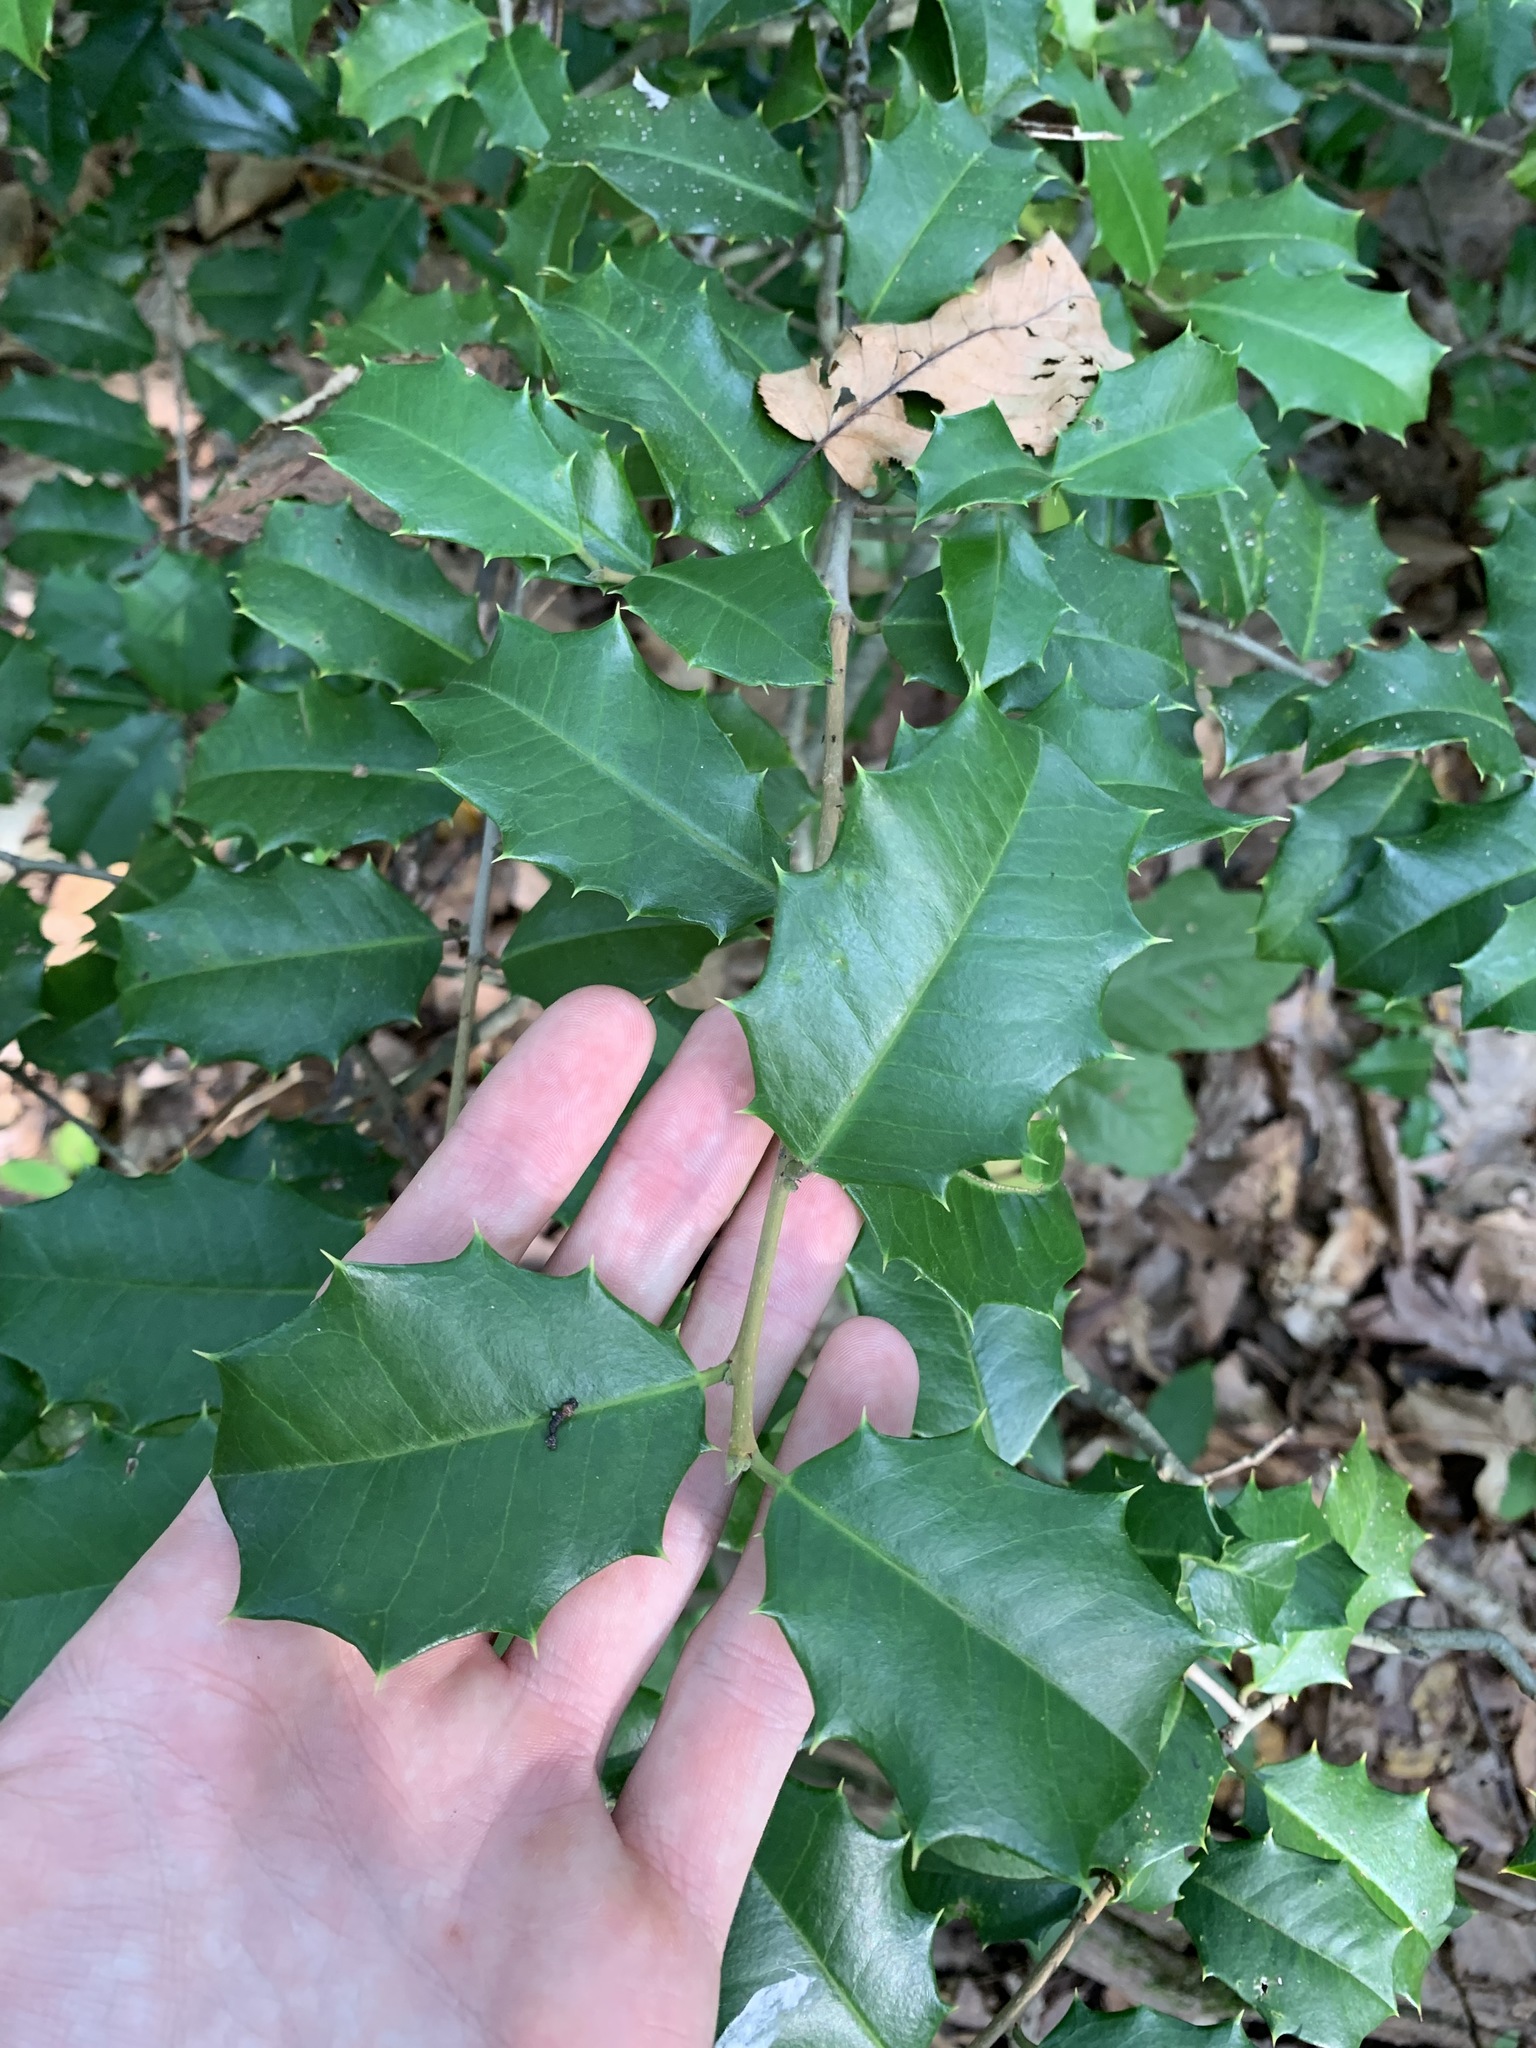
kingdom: Plantae
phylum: Tracheophyta
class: Magnoliopsida
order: Aquifoliales
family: Aquifoliaceae
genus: Ilex
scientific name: Ilex opaca
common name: American holly
